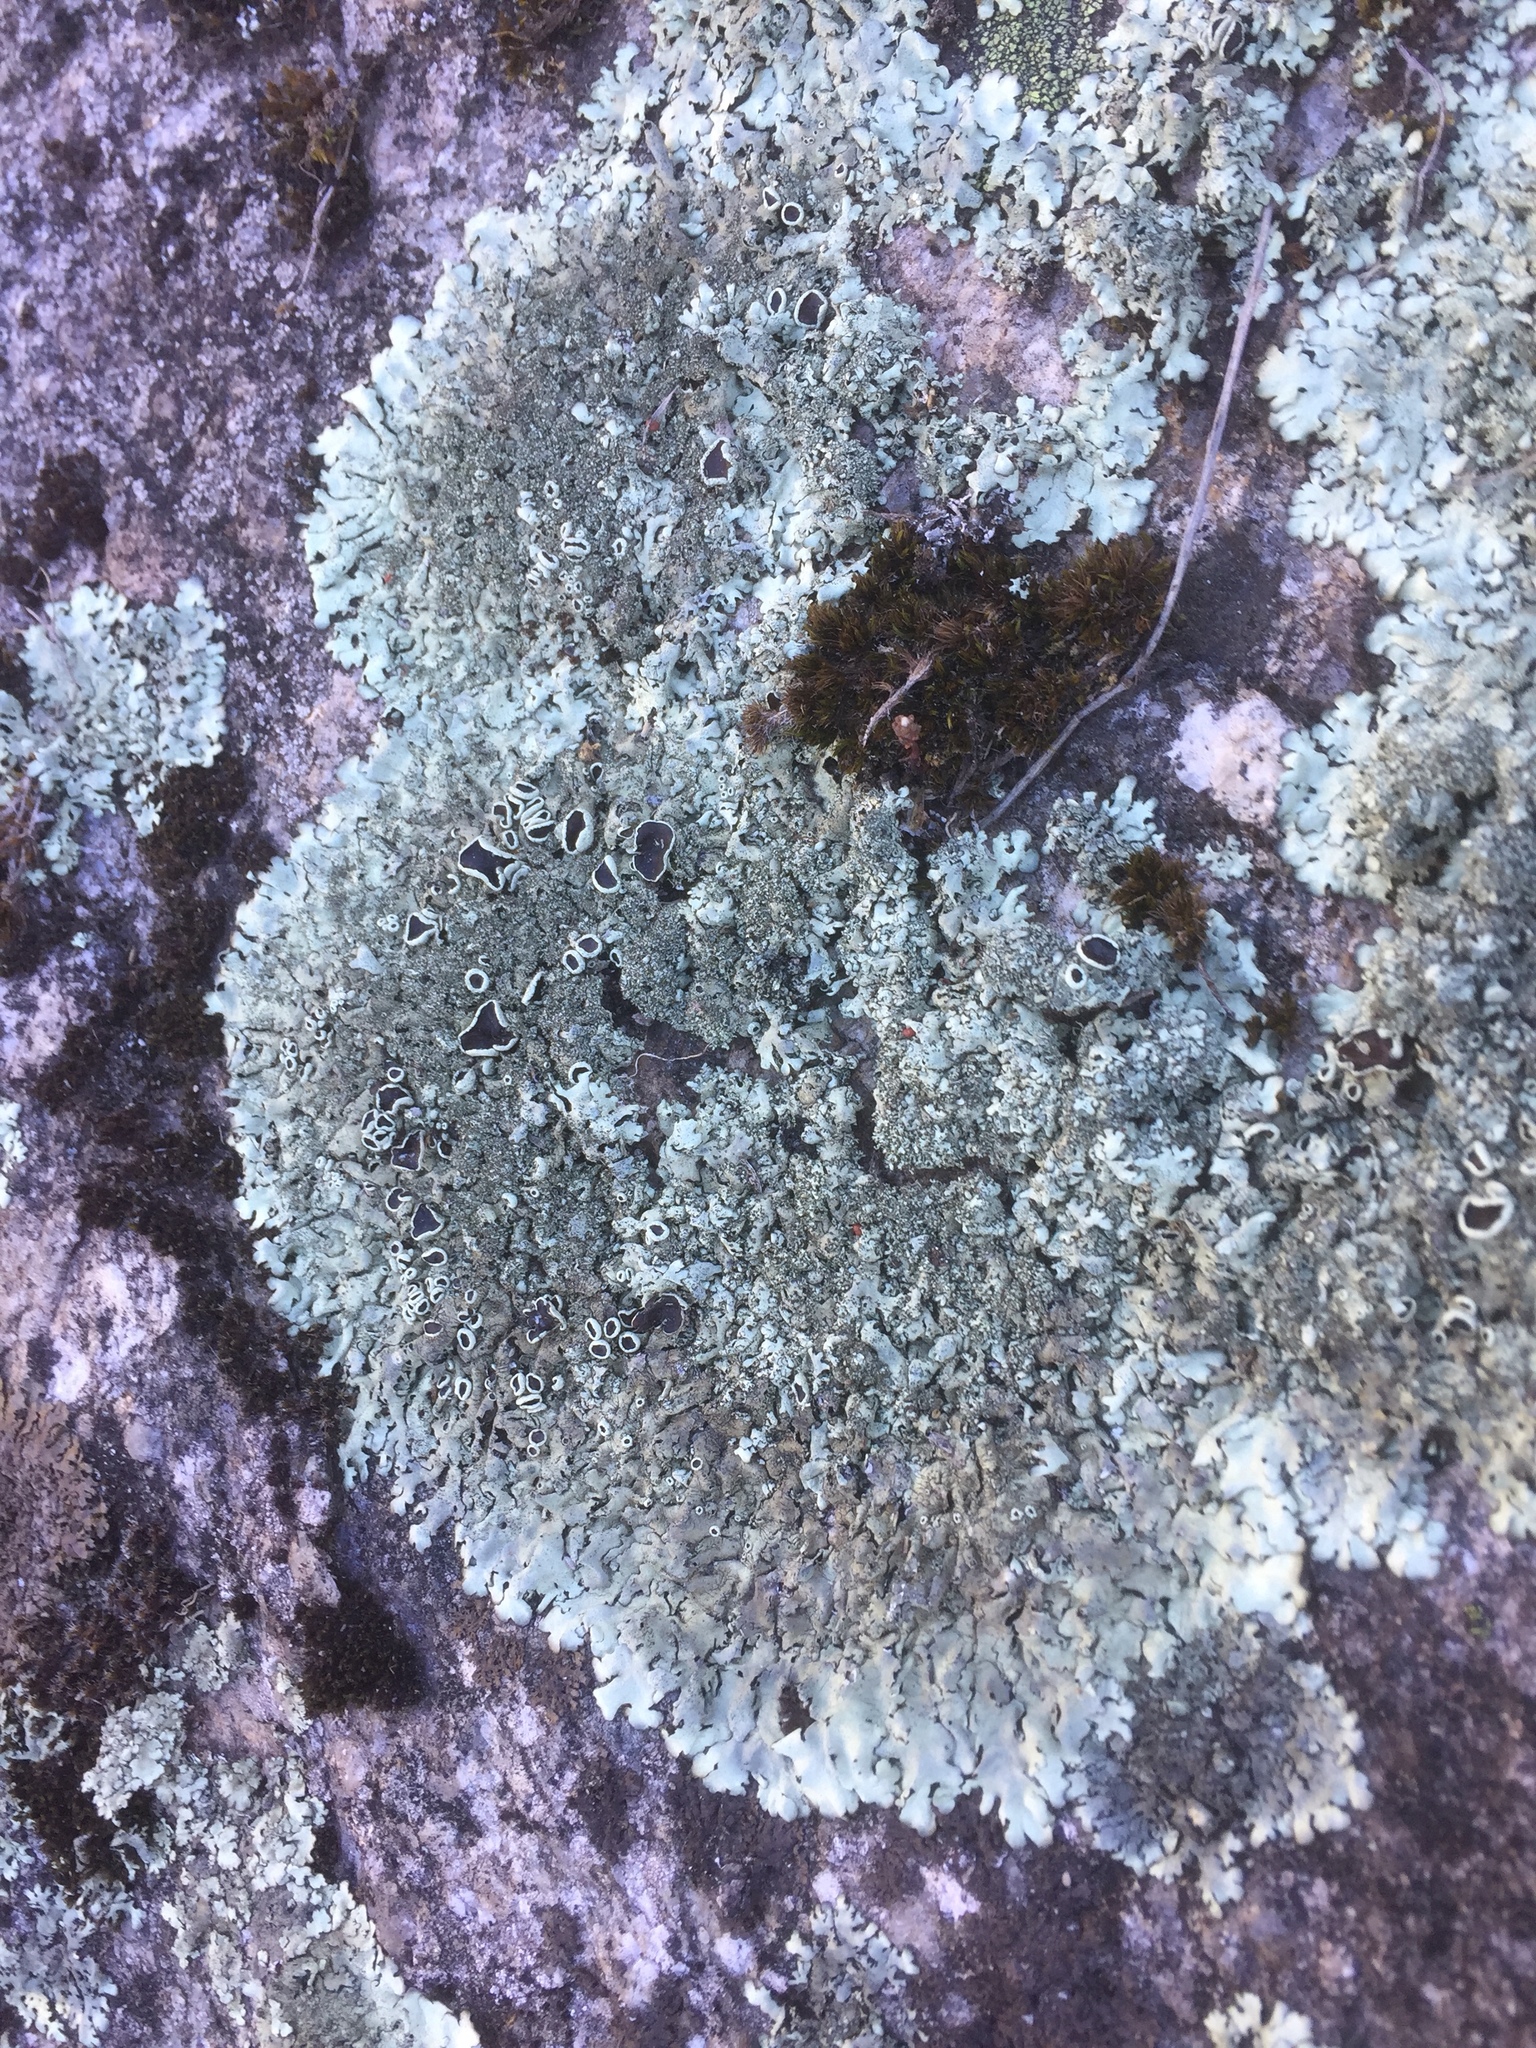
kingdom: Fungi
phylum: Ascomycota
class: Lecanoromycetes
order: Lecanorales
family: Parmeliaceae
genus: Xanthoparmelia
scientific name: Xanthoparmelia conspersa
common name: Peppered rock shield
